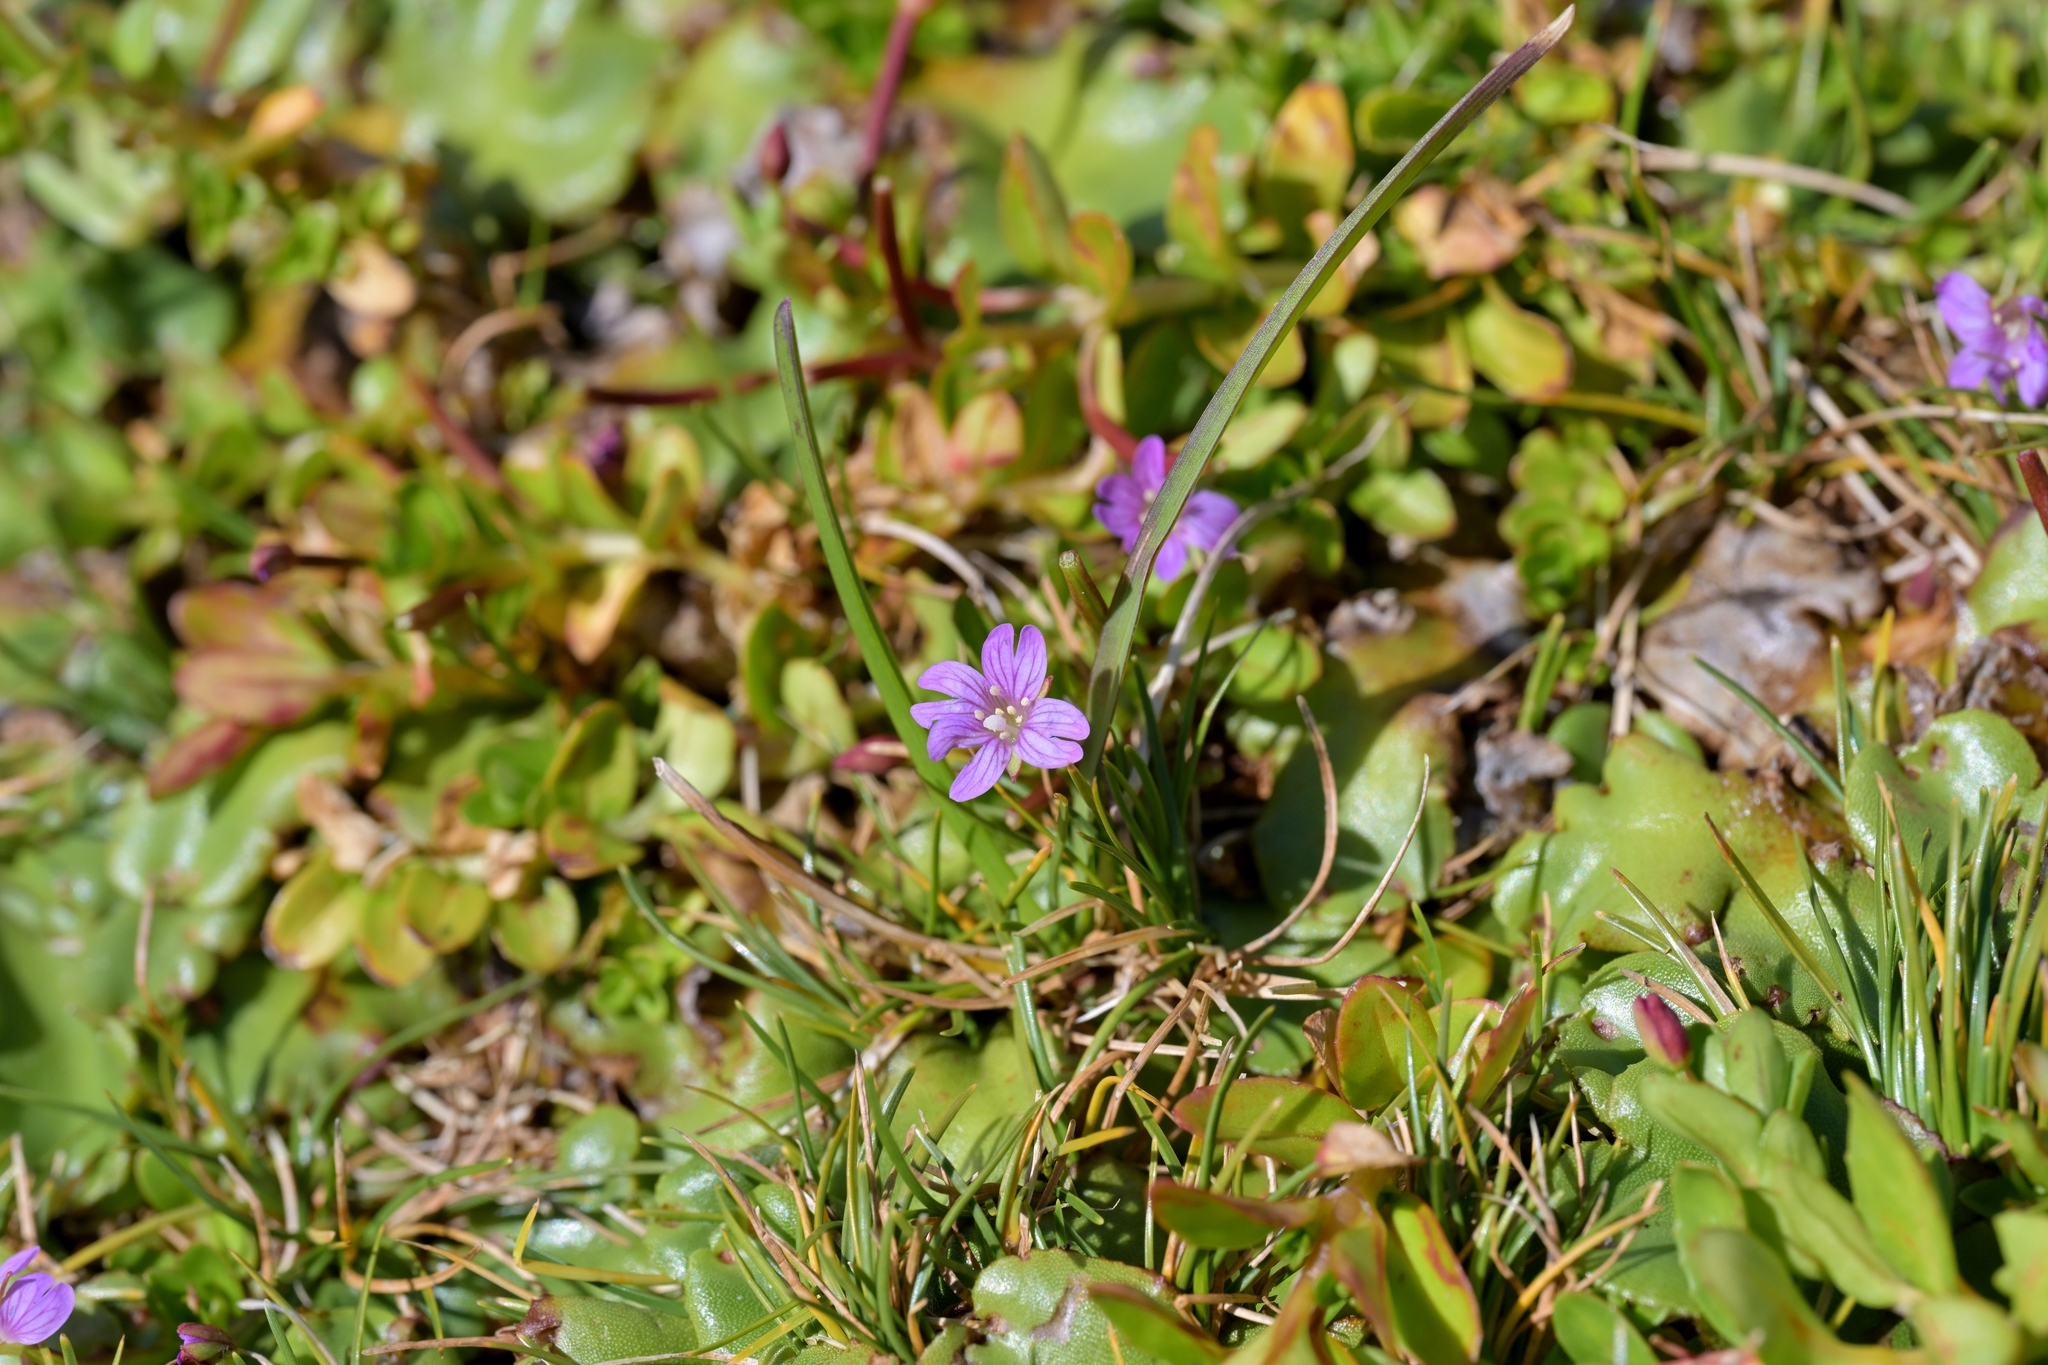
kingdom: Plantae
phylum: Tracheophyta
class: Magnoliopsida
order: Myrtales
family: Onagraceae
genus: Epilobium
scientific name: Epilobium confertifolium
